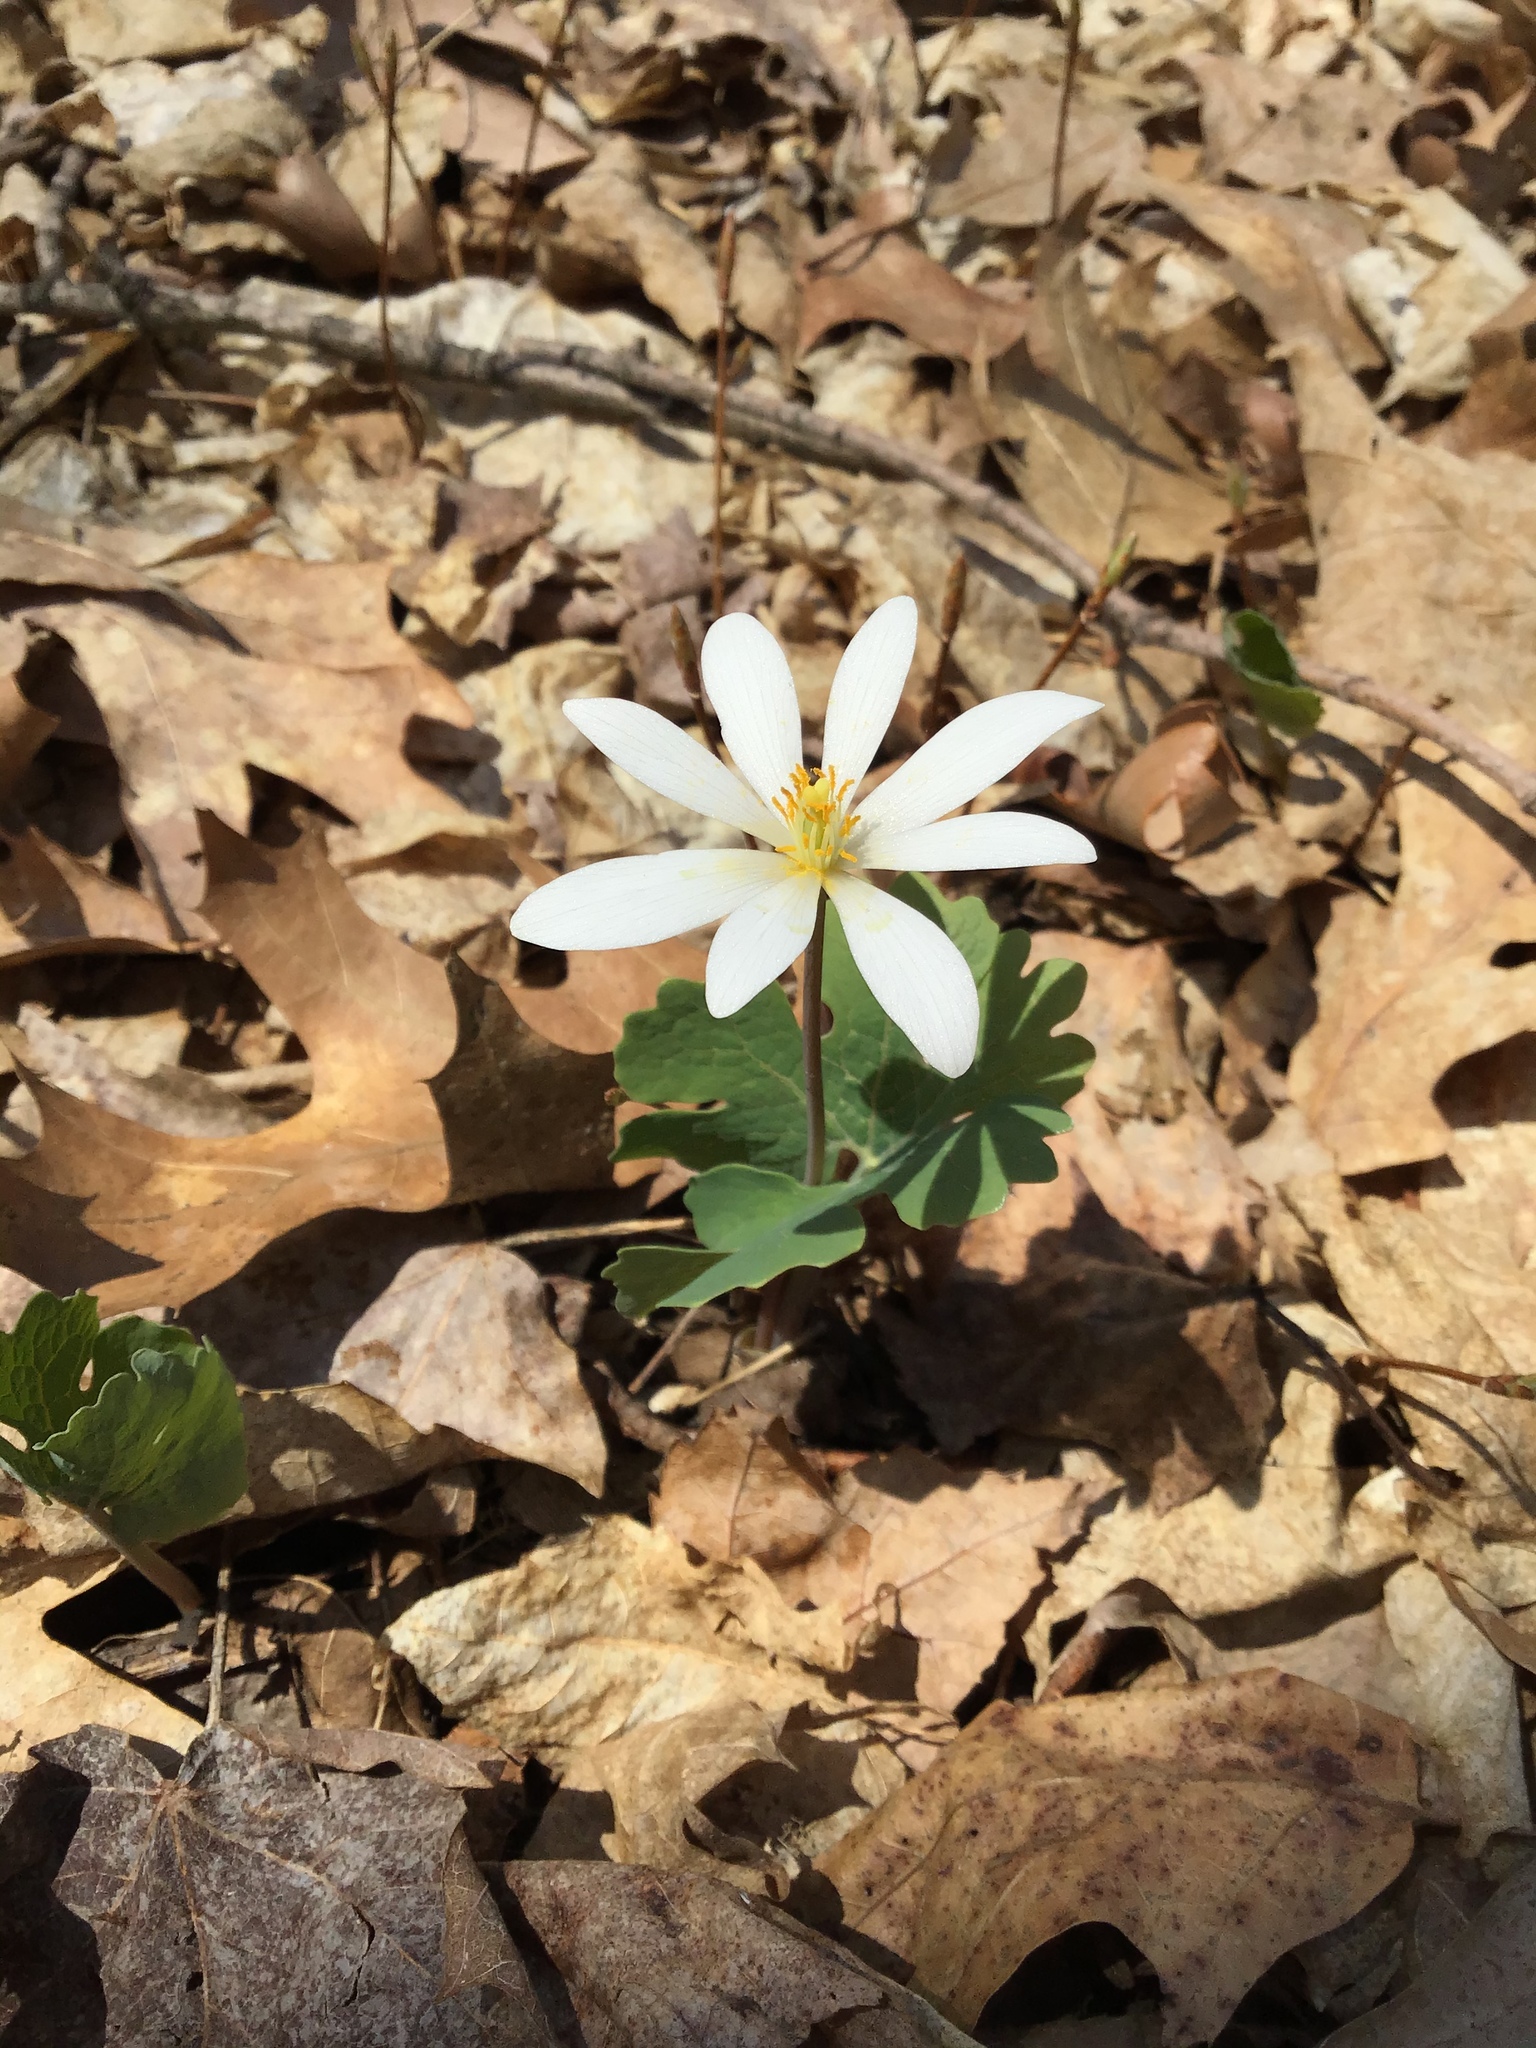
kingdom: Plantae
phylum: Tracheophyta
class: Magnoliopsida
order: Ranunculales
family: Papaveraceae
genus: Sanguinaria
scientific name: Sanguinaria canadensis
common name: Bloodroot
